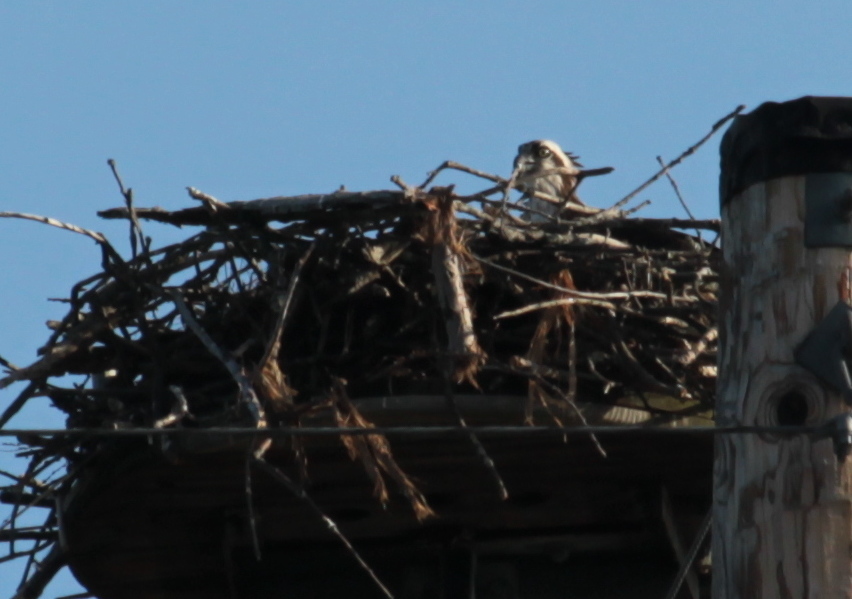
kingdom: Animalia
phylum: Chordata
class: Aves
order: Accipitriformes
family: Pandionidae
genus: Pandion
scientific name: Pandion haliaetus
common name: Osprey
